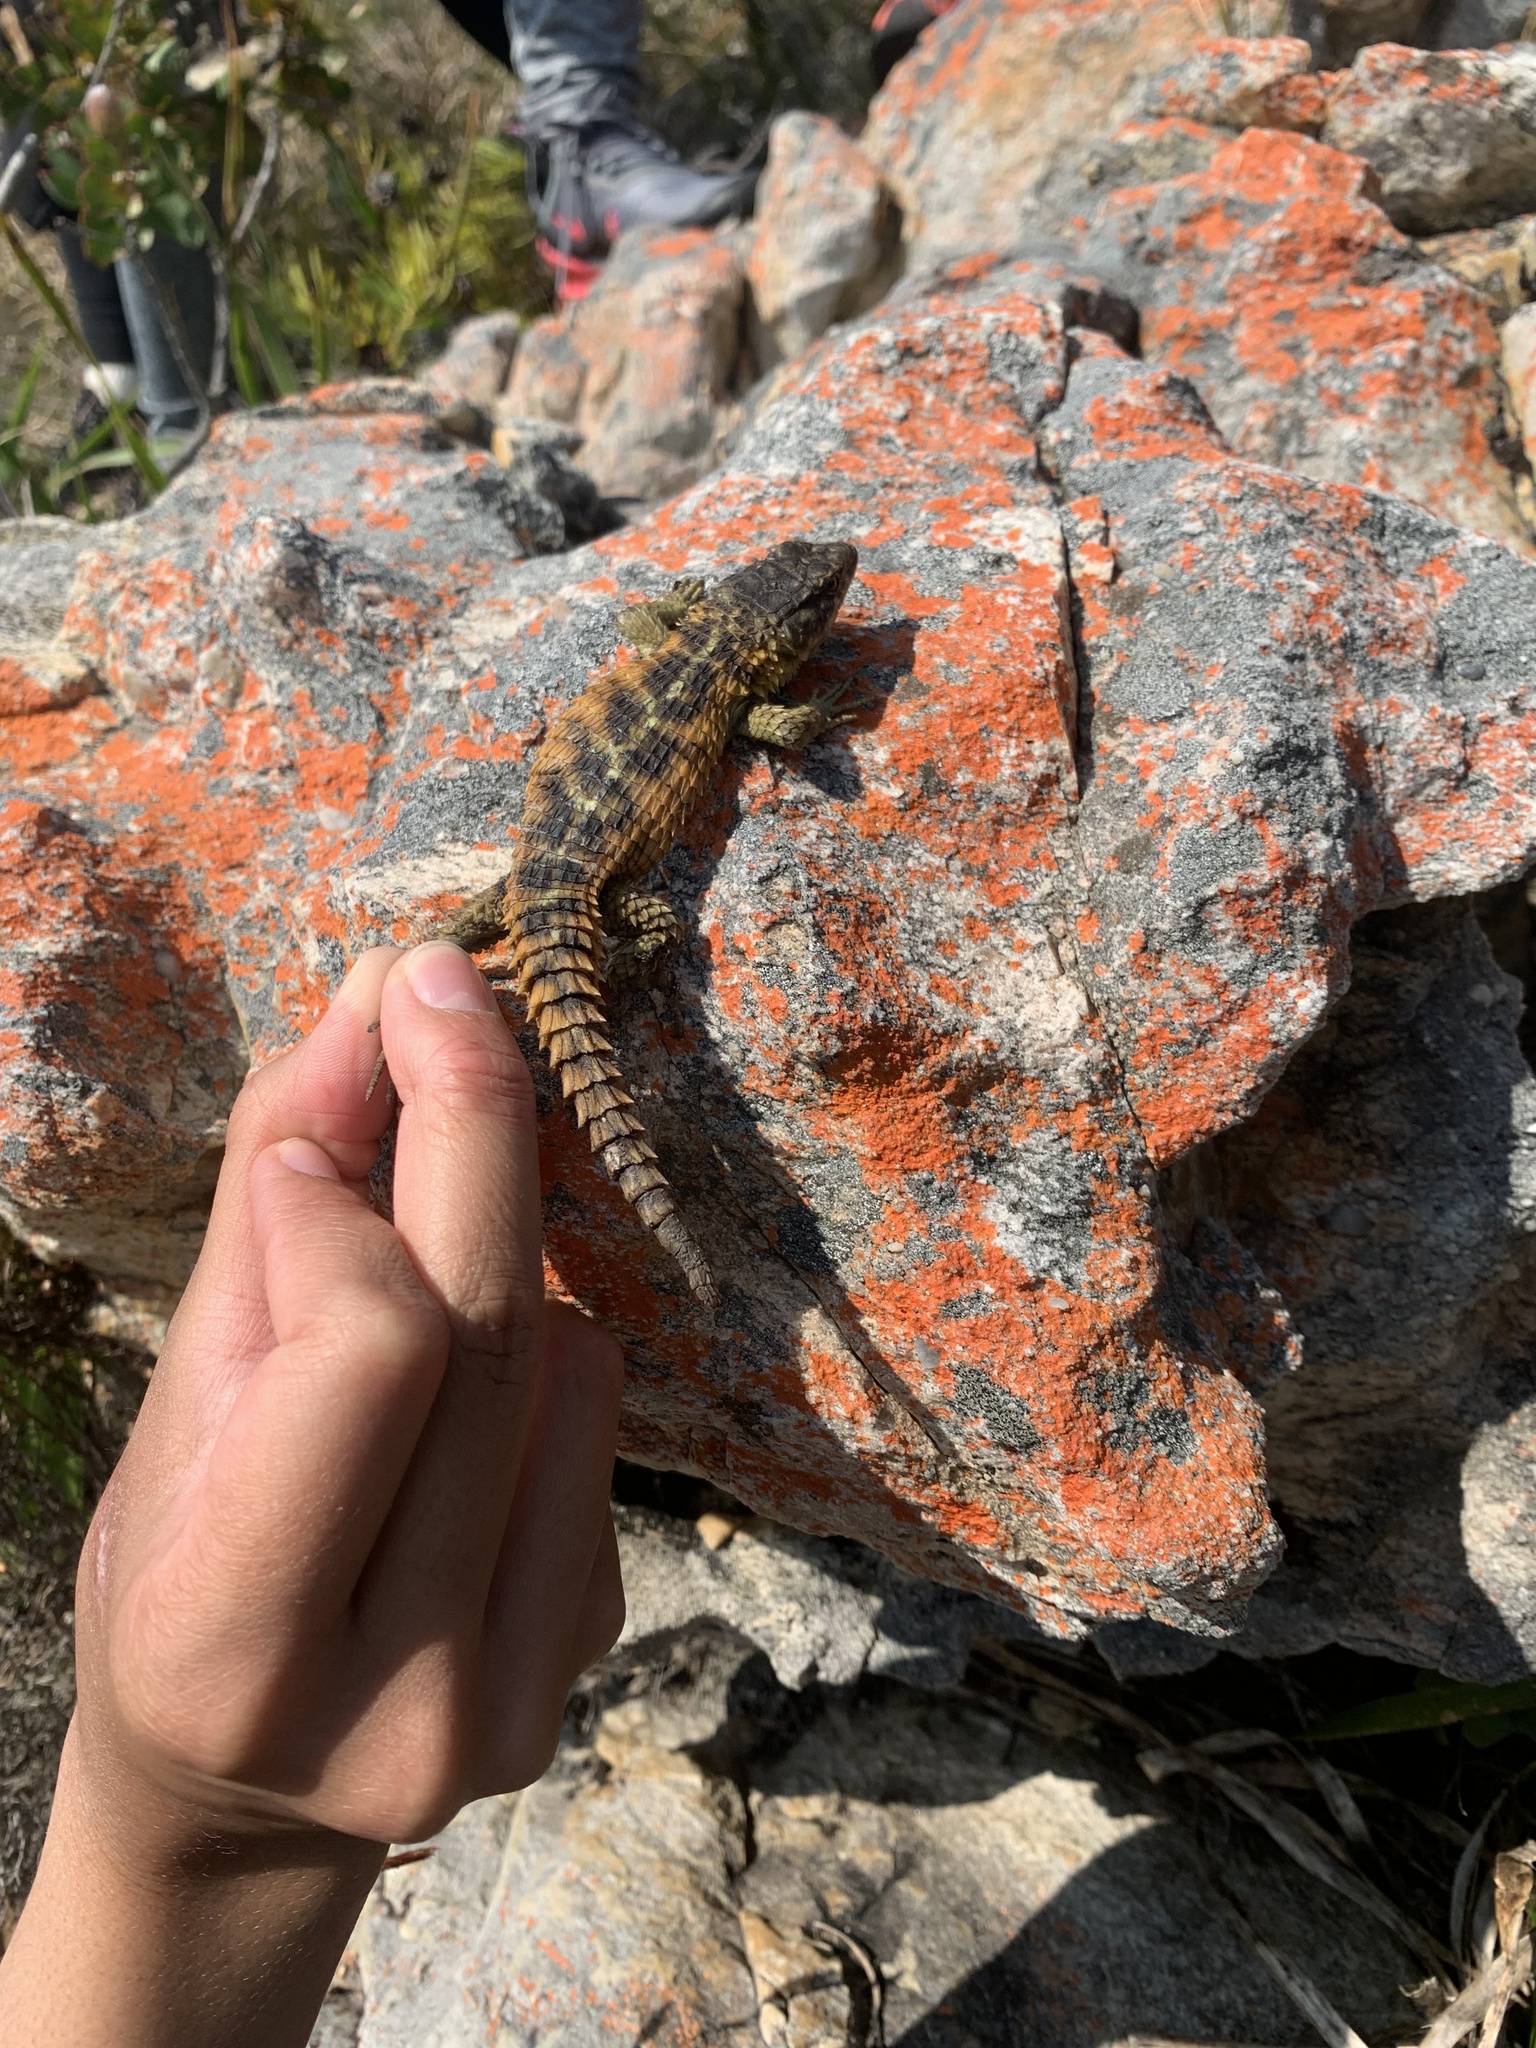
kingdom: Animalia
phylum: Chordata
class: Squamata
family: Cordylidae
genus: Cordylus
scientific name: Cordylus cordylus
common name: Cape girdled lizard
